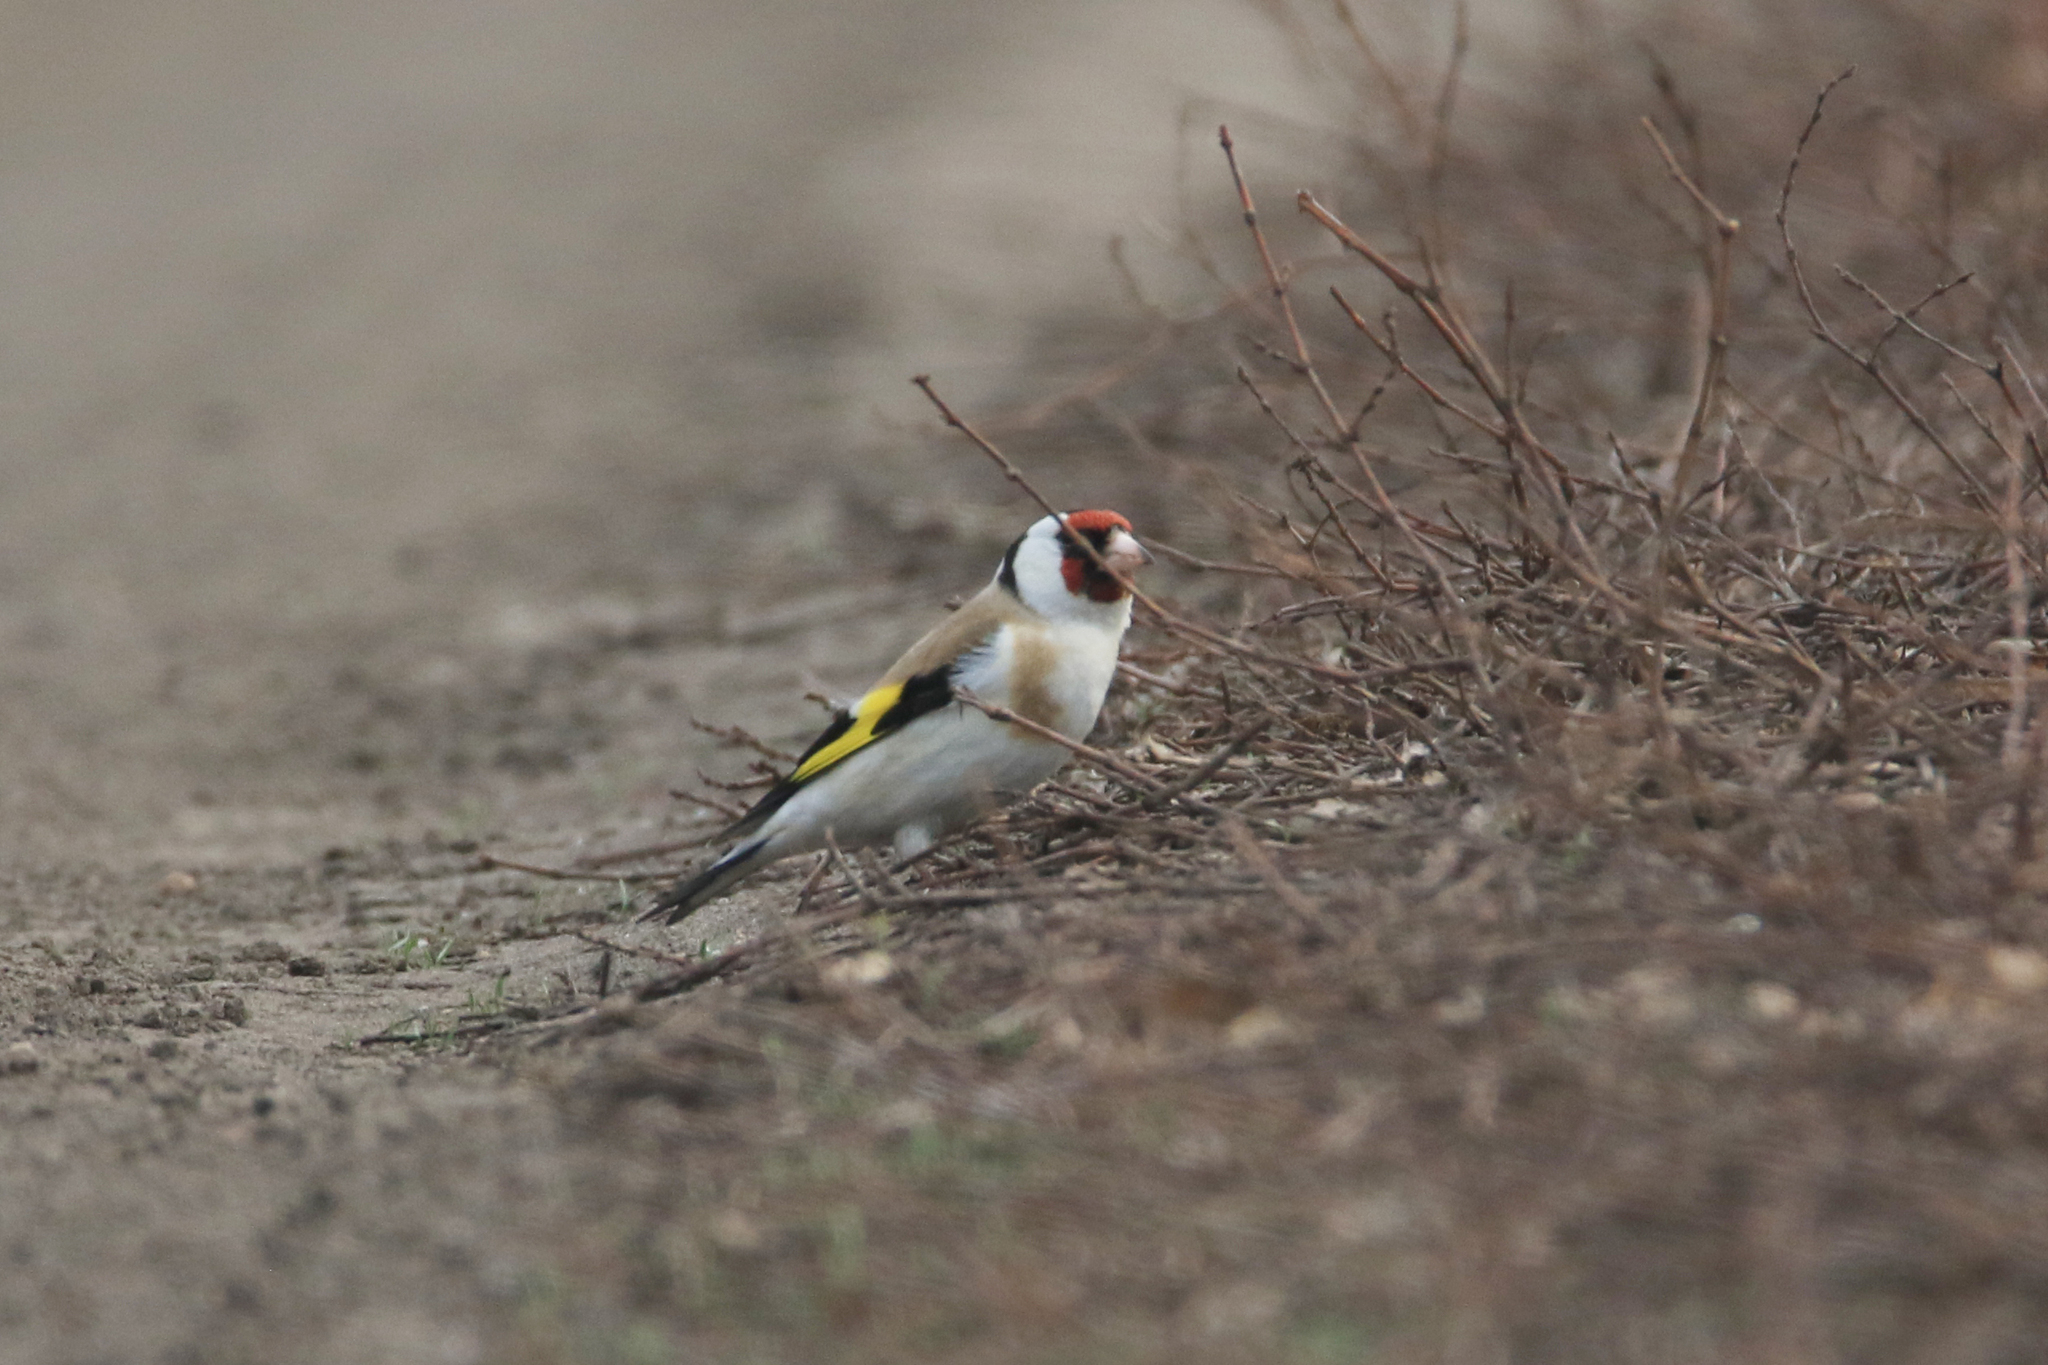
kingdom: Animalia
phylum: Chordata
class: Aves
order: Passeriformes
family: Fringillidae
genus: Carduelis
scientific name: Carduelis carduelis
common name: European goldfinch
